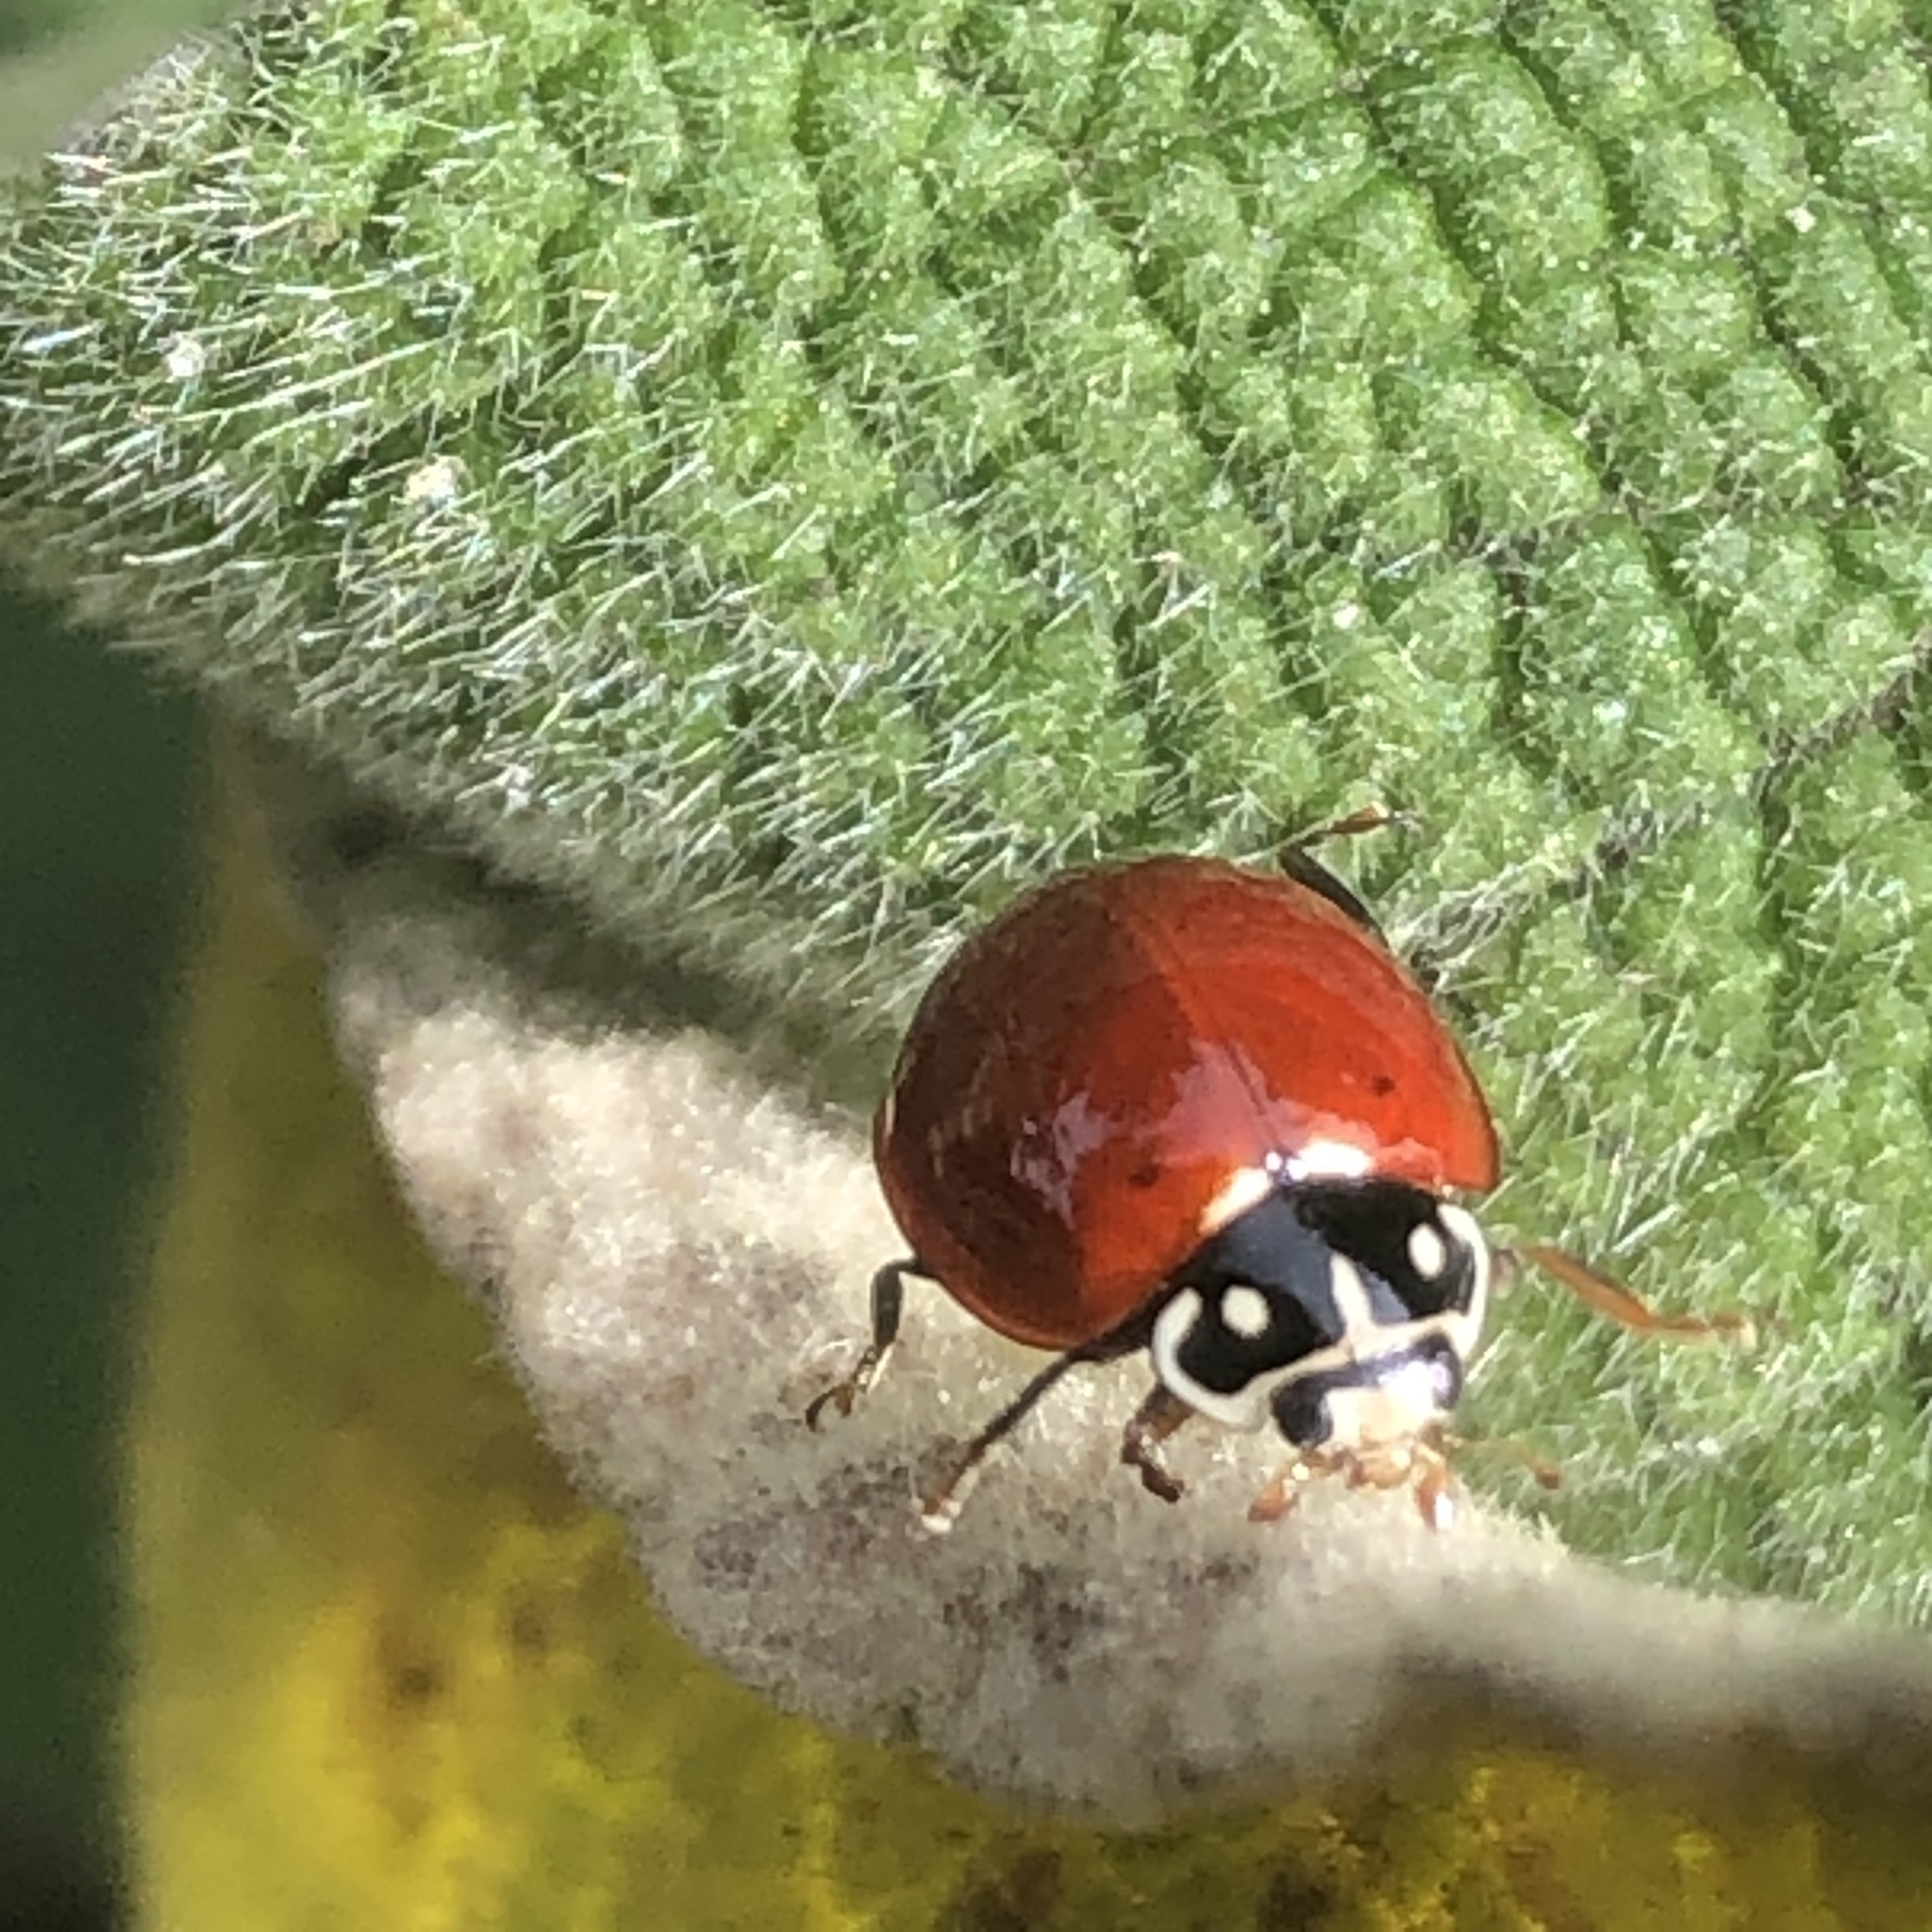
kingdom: Animalia
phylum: Arthropoda
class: Insecta
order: Coleoptera
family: Coccinellidae
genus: Cycloneda
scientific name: Cycloneda sanguinea
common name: Ladybird beetle
